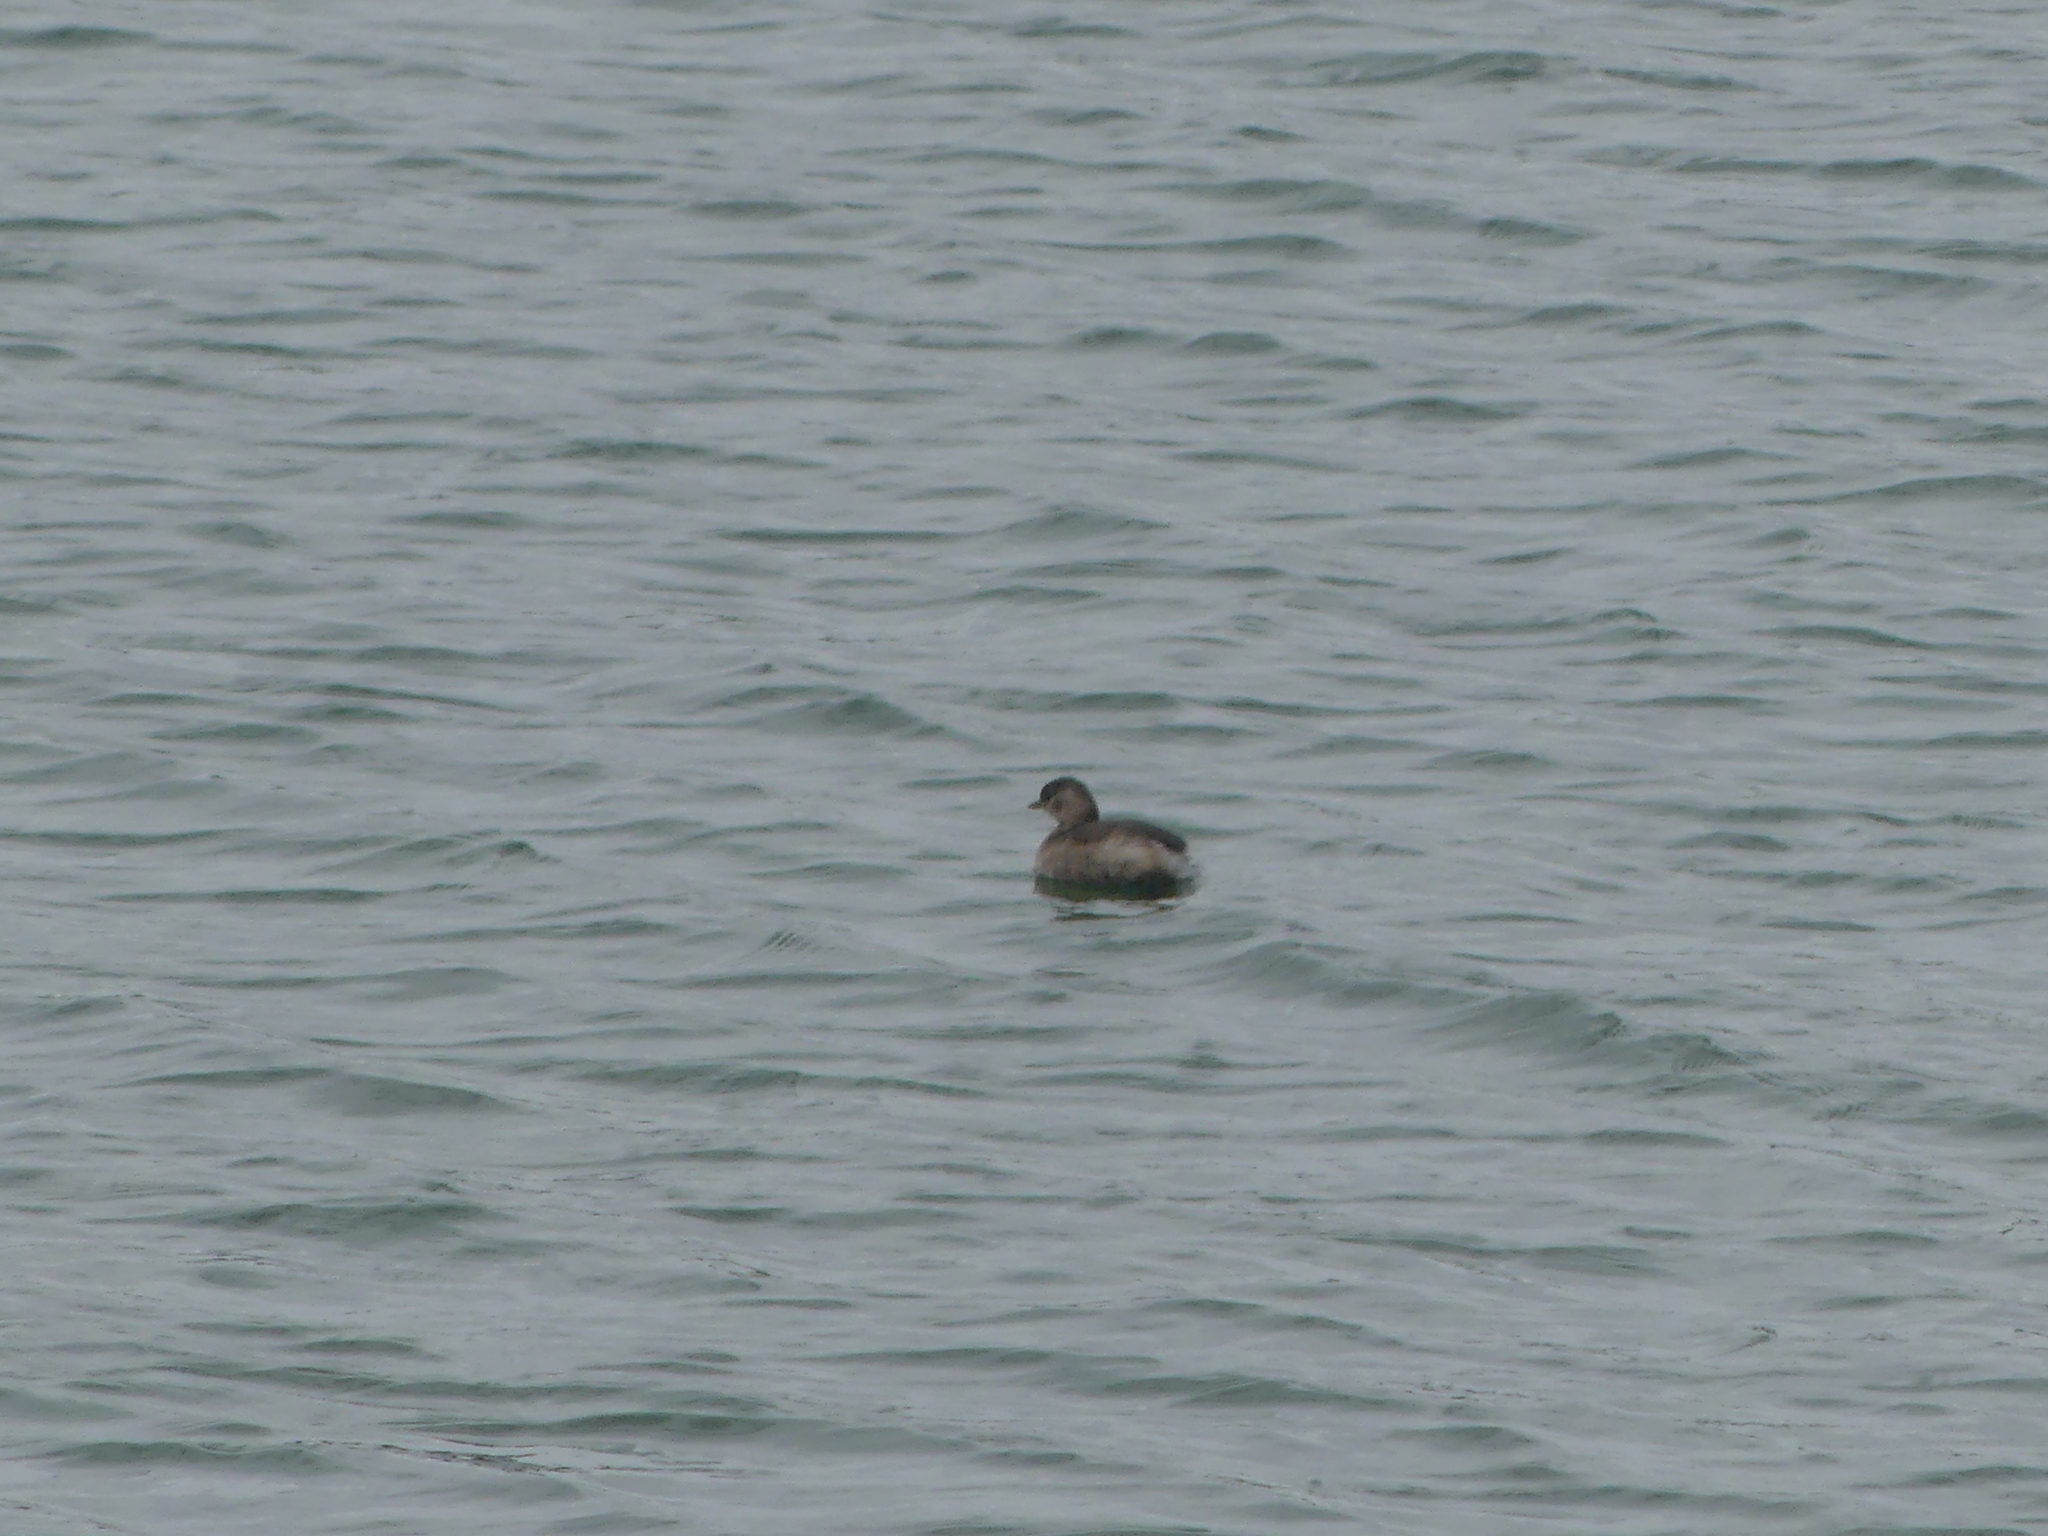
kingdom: Animalia
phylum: Chordata
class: Aves
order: Podicipediformes
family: Podicipedidae
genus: Tachybaptus
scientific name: Tachybaptus ruficollis
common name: Little grebe
